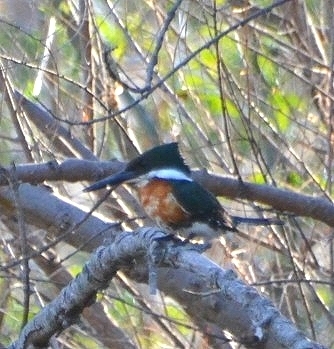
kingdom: Animalia
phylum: Chordata
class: Aves
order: Coraciiformes
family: Alcedinidae
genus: Chloroceryle
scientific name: Chloroceryle americana
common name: Green kingfisher
